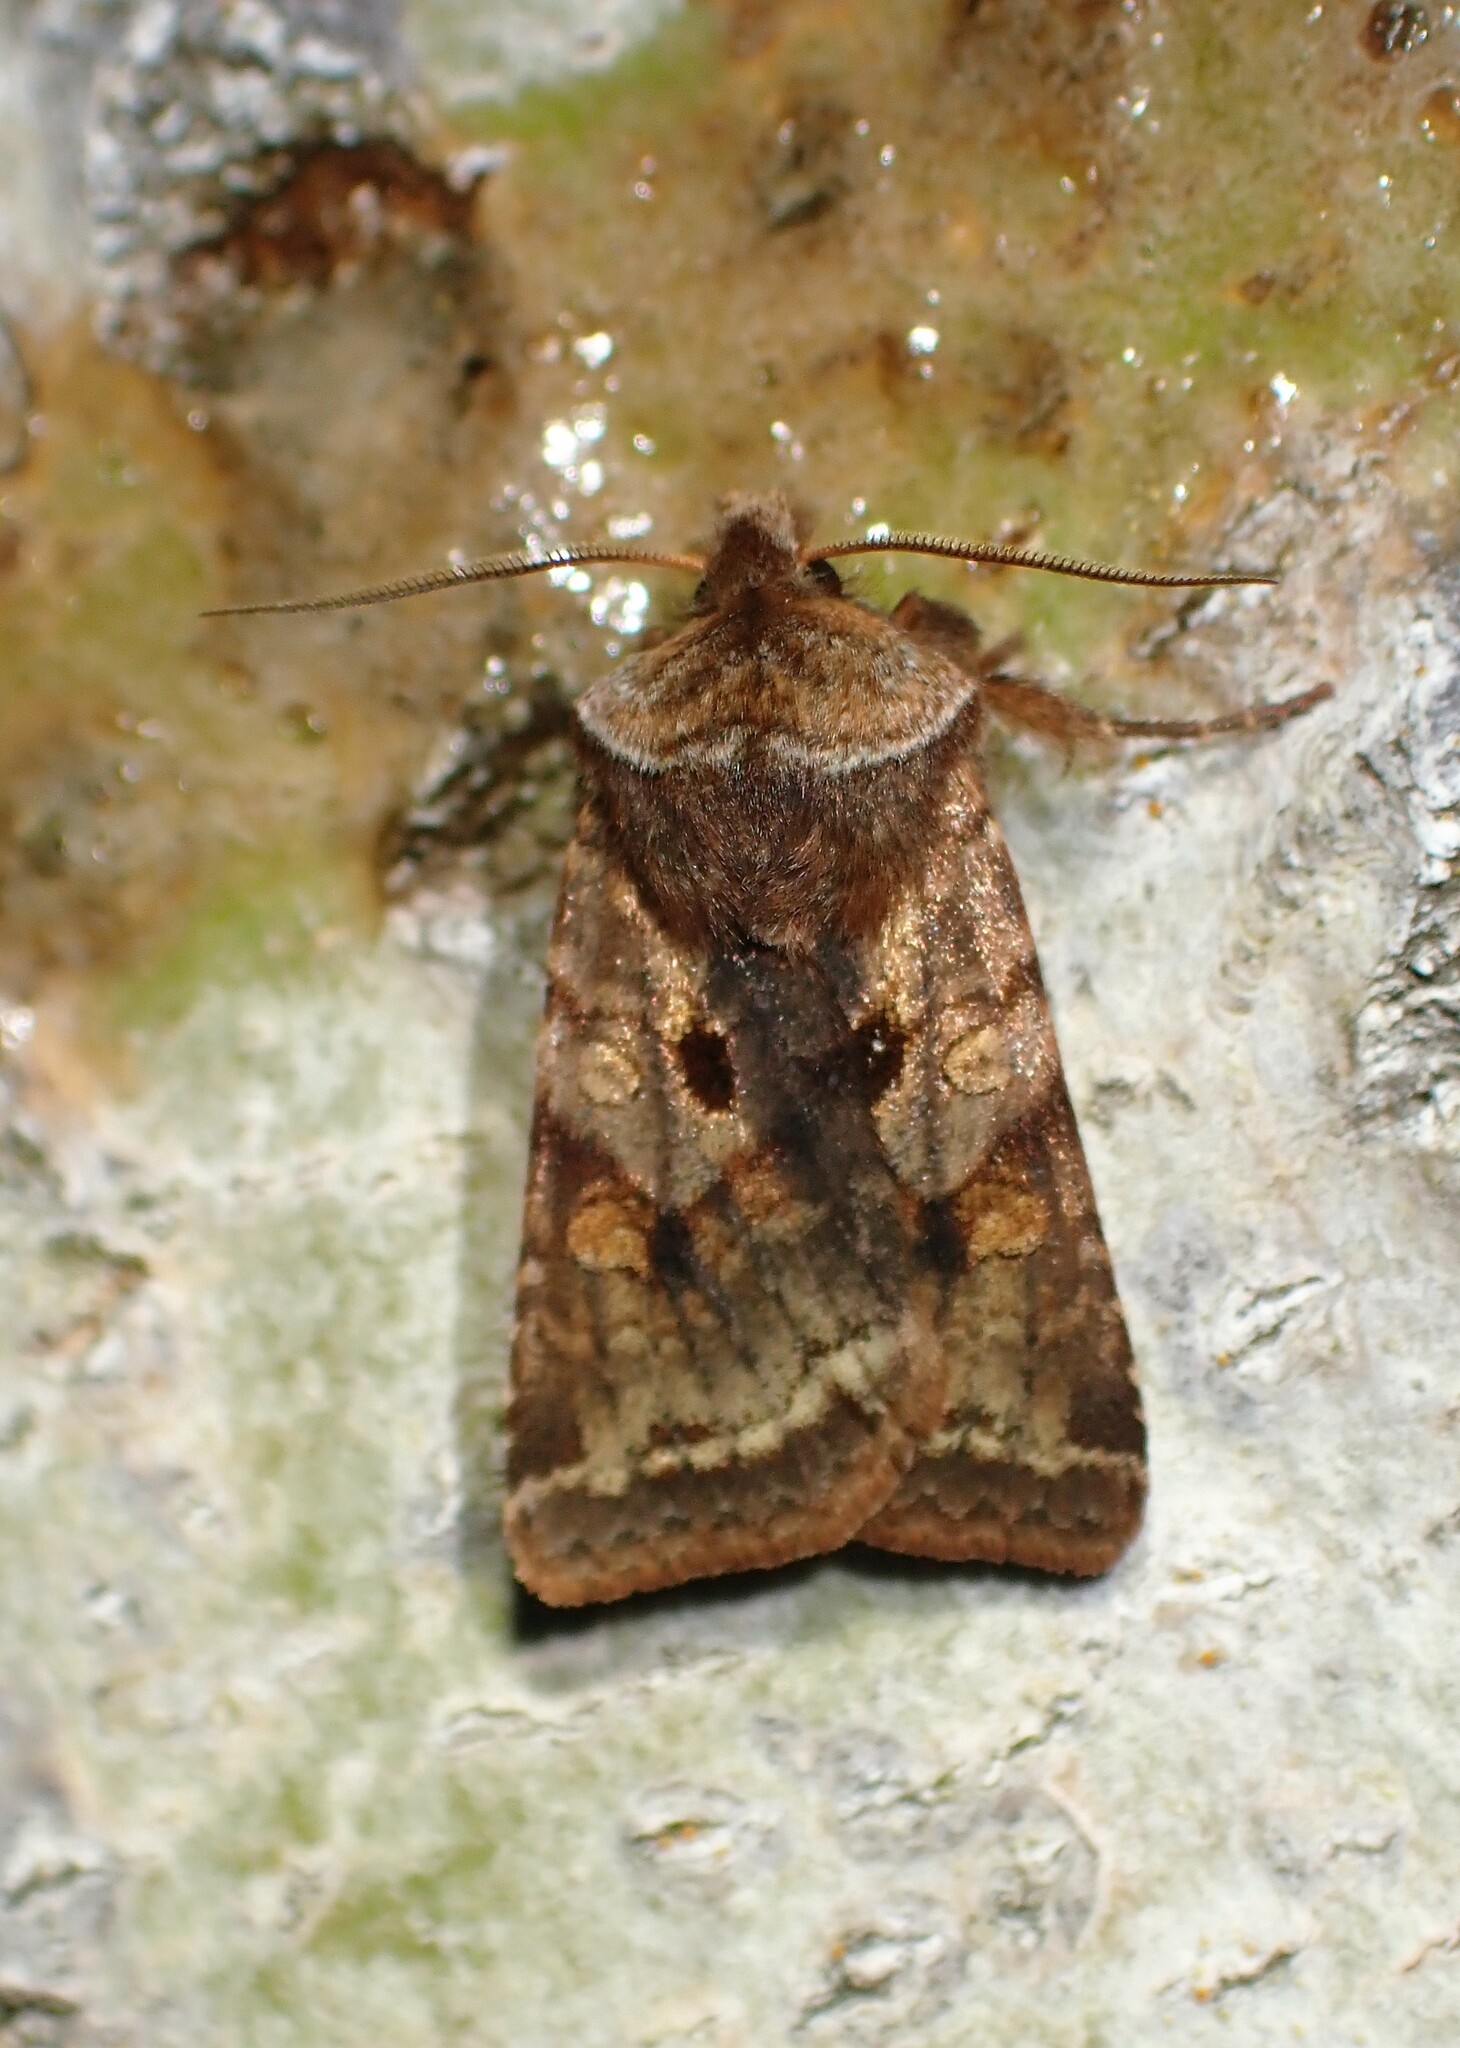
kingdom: Animalia
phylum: Arthropoda
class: Insecta
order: Lepidoptera
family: Noctuidae
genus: Cerastis
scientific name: Cerastis salicarum
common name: Willow dart
